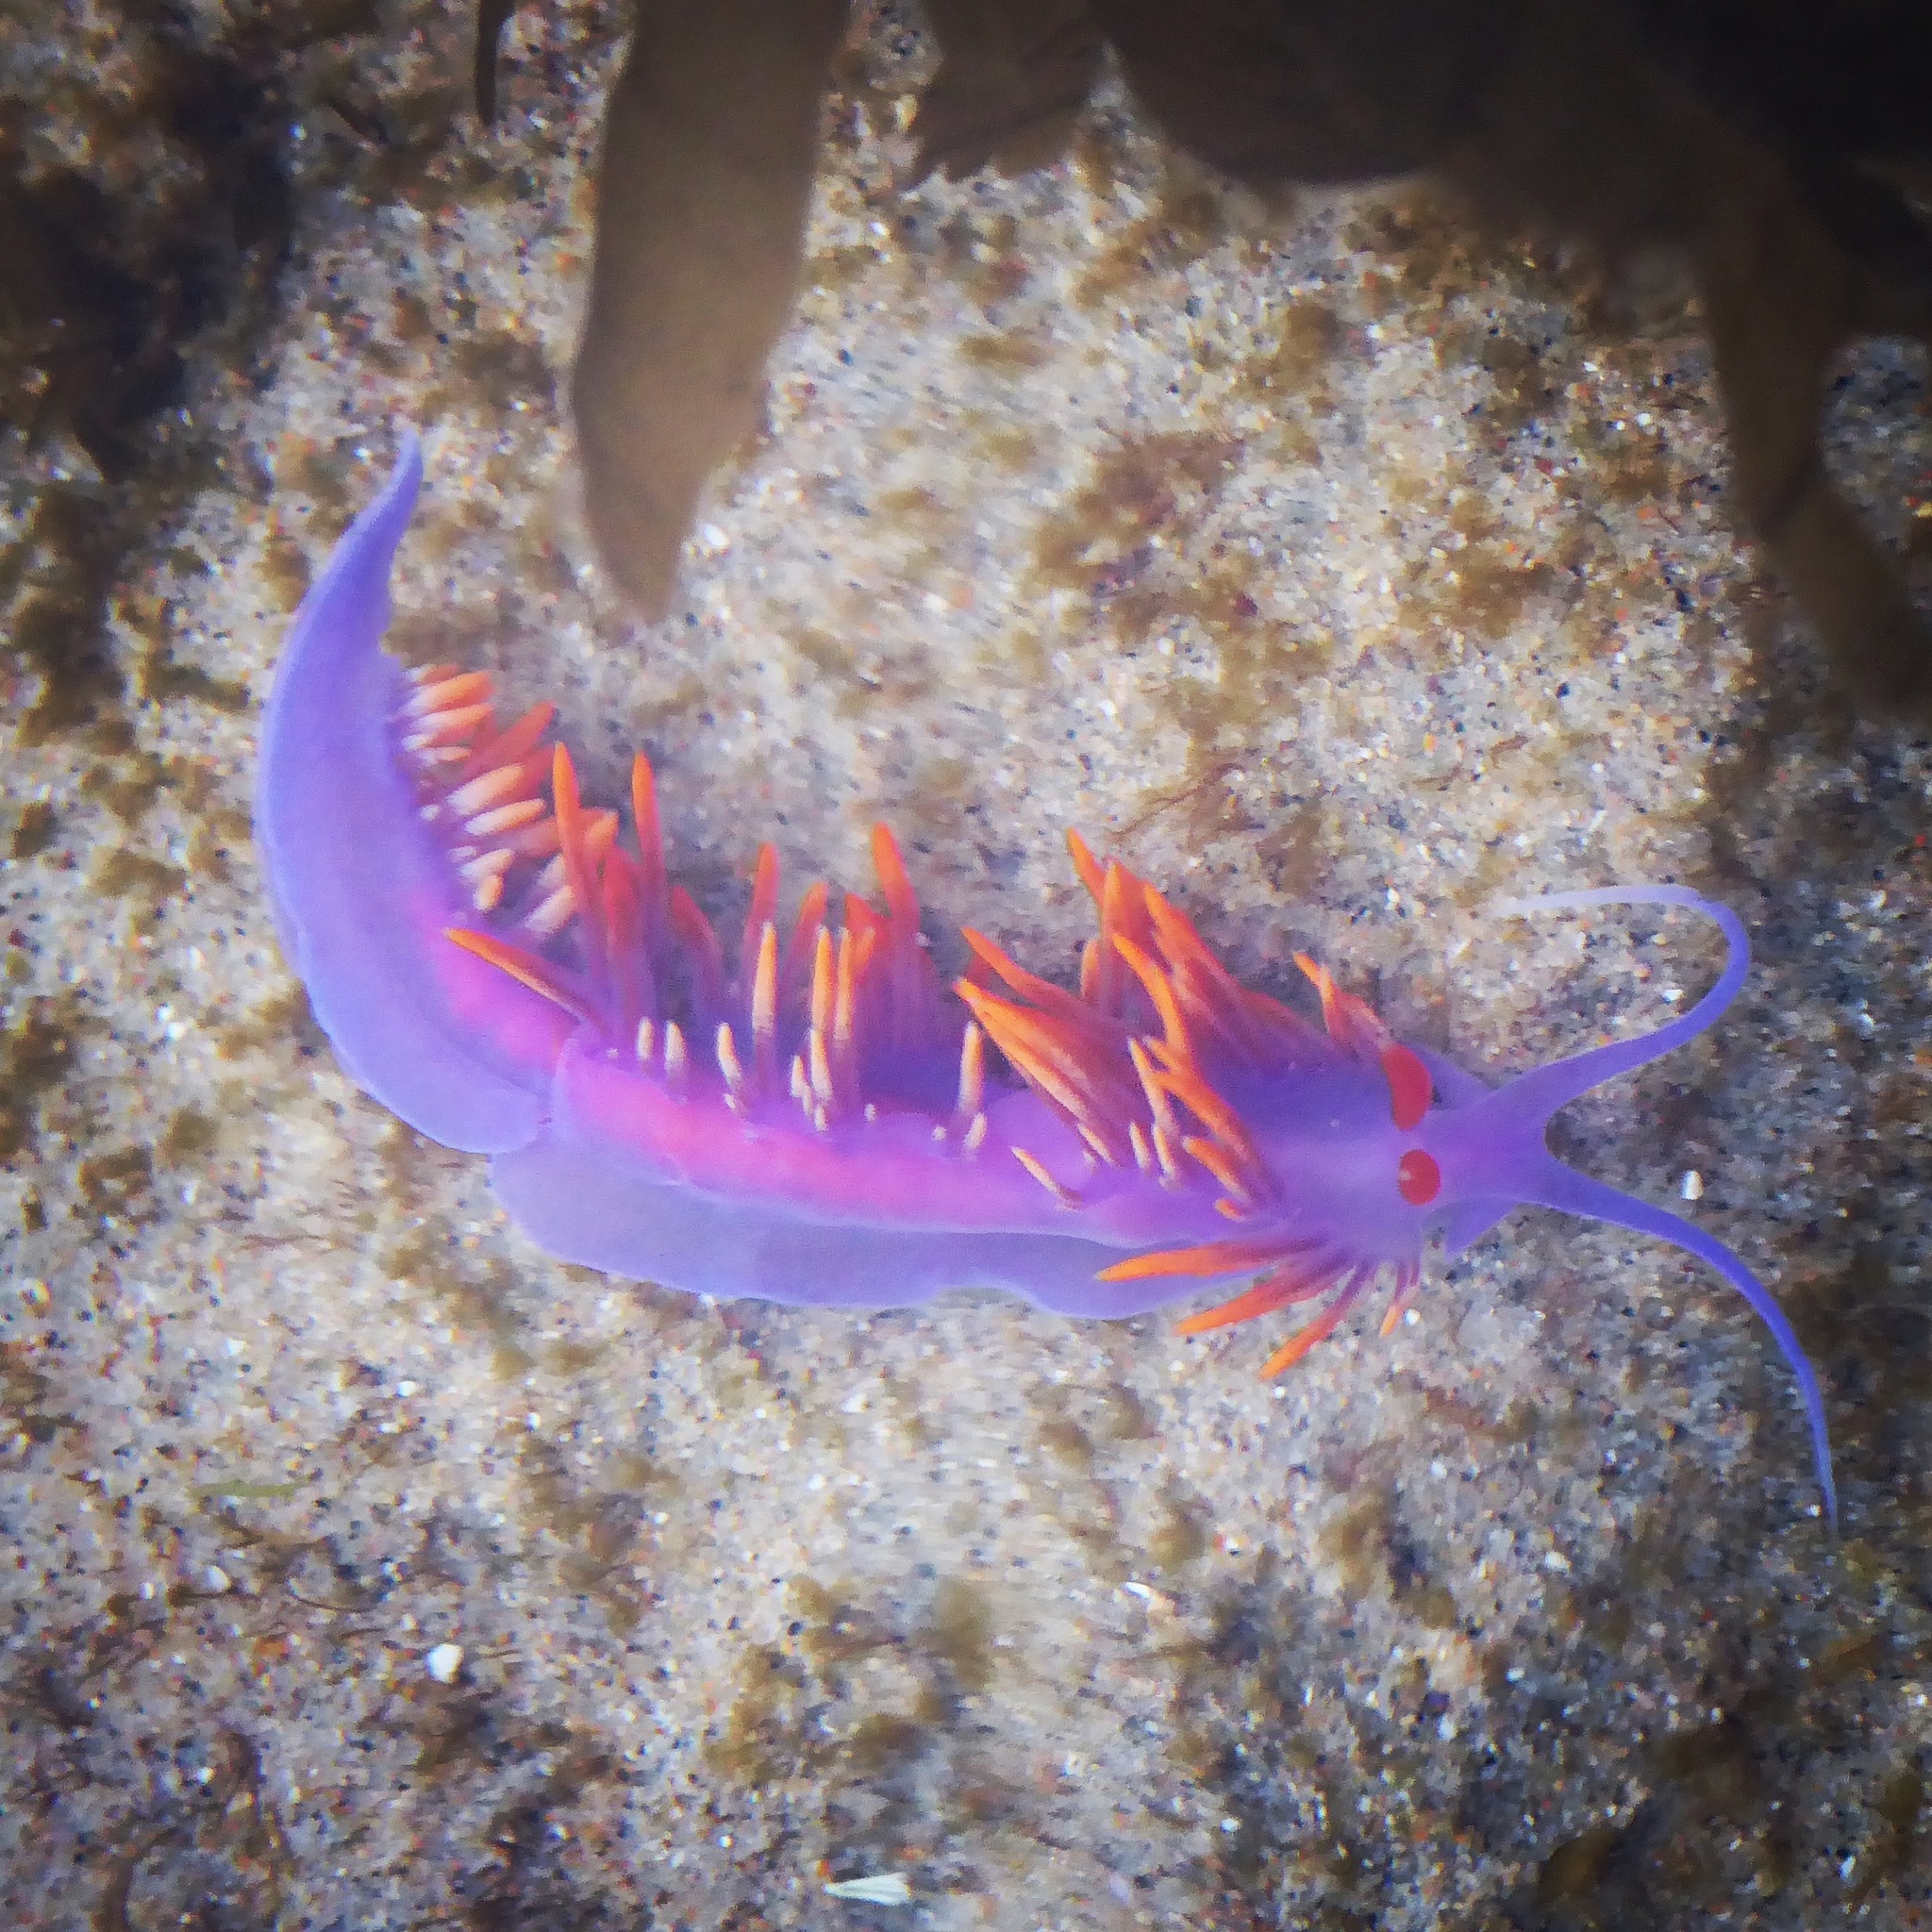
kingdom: Animalia
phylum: Mollusca
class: Gastropoda
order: Nudibranchia
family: Flabellinopsidae
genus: Flabellinopsis
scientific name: Flabellinopsis iodinea
